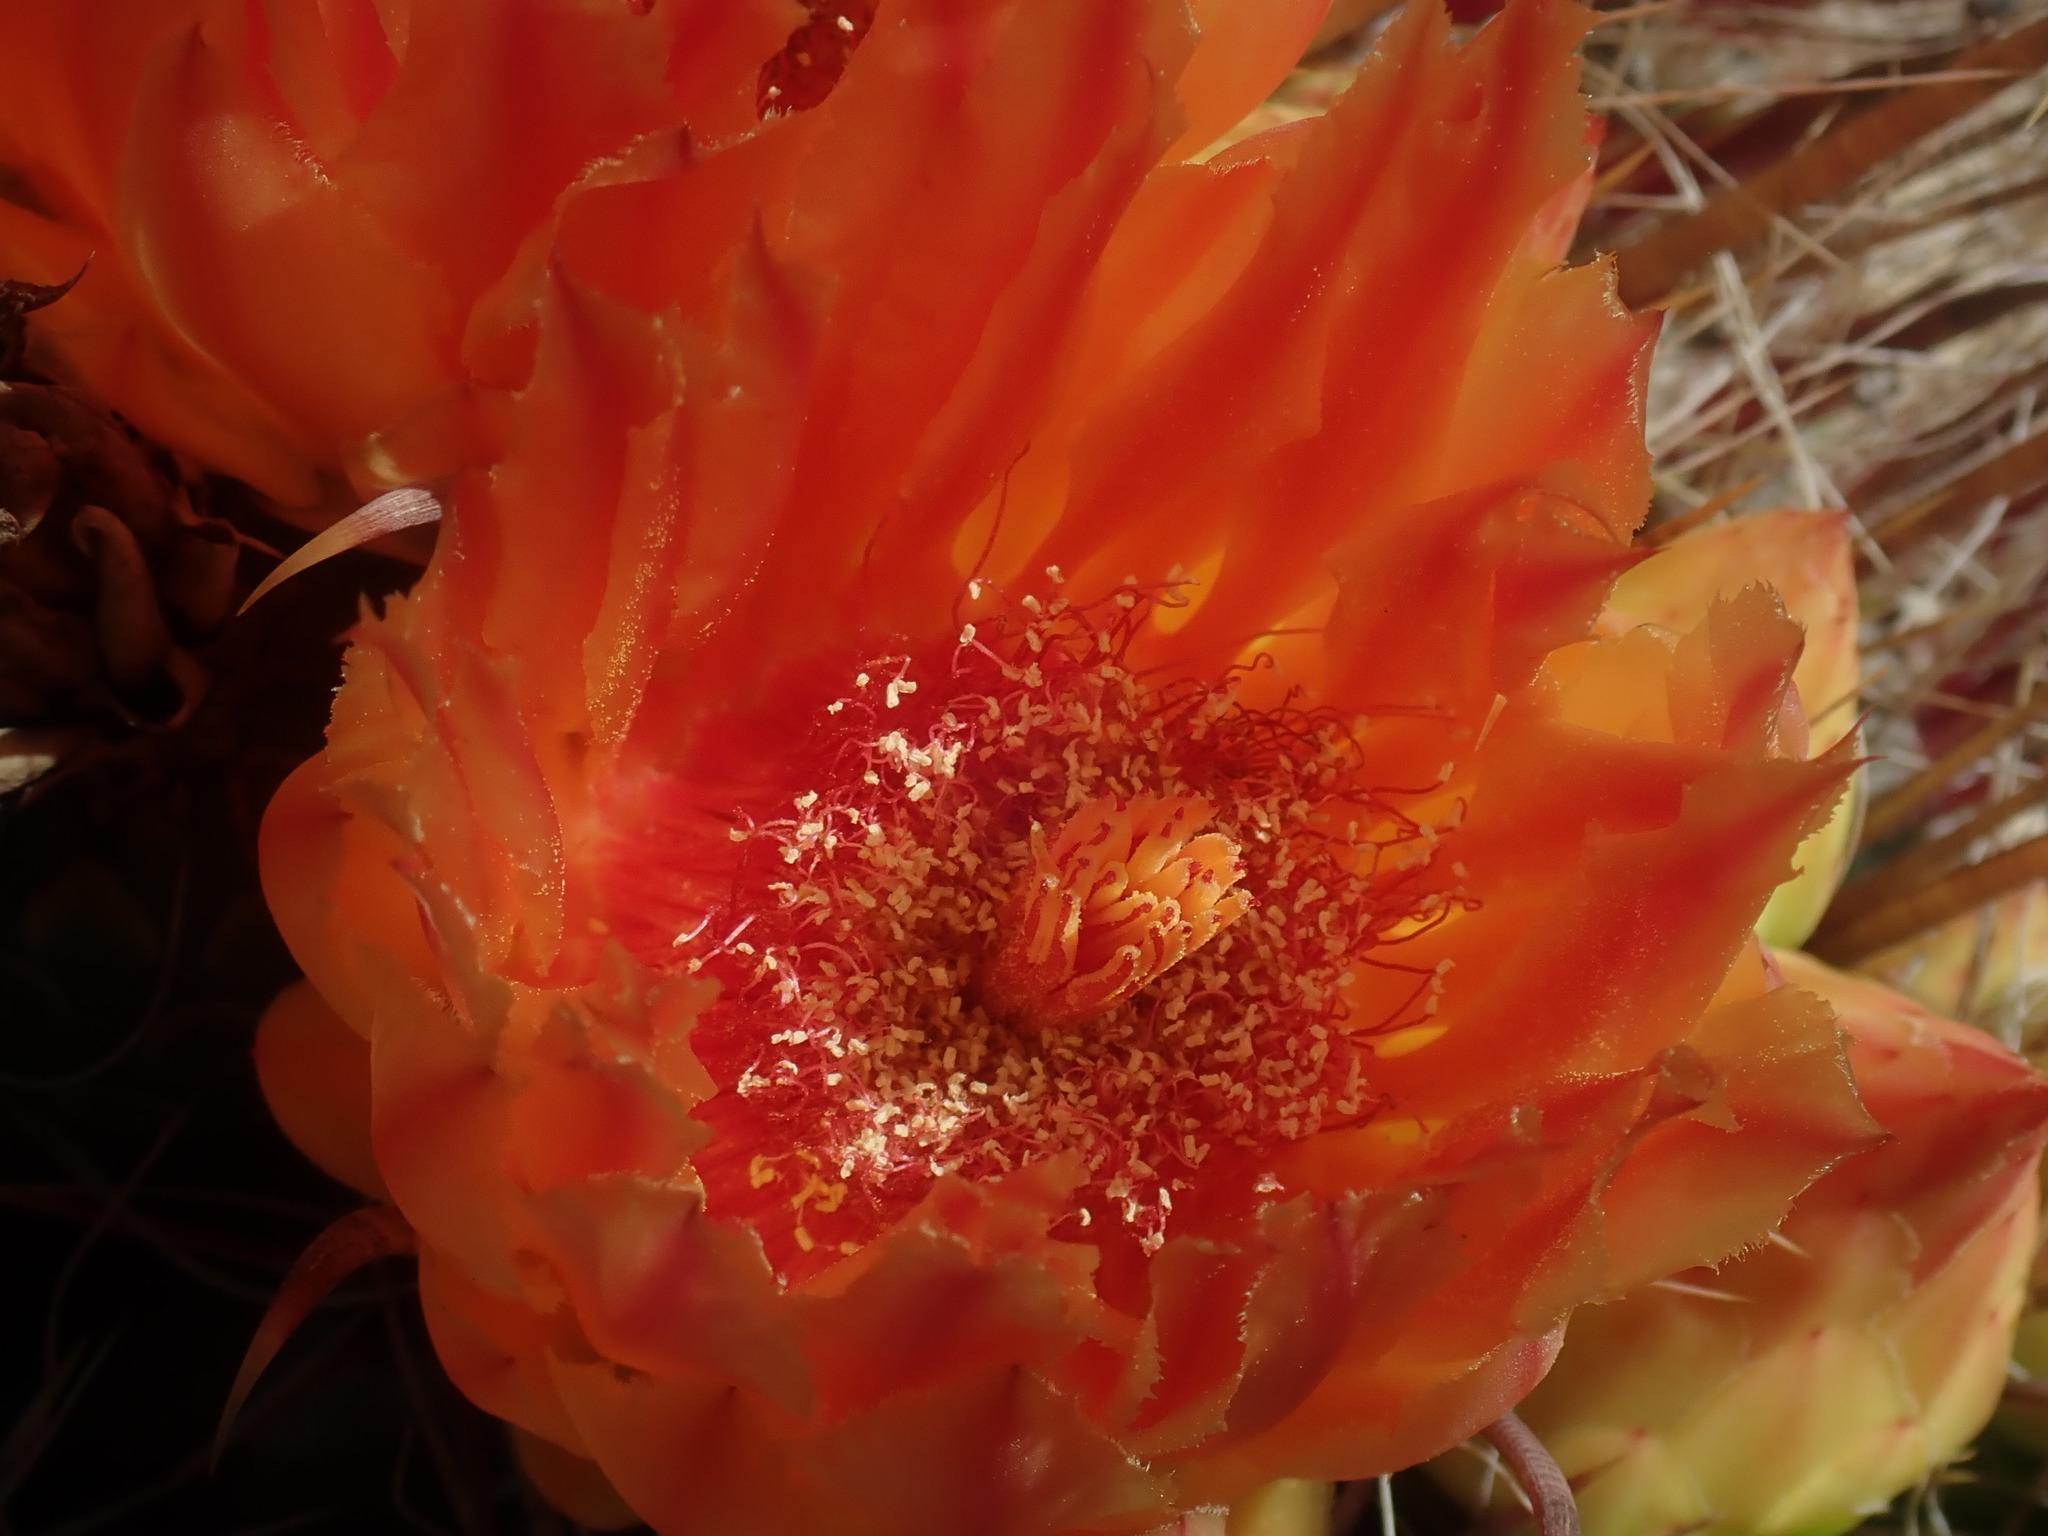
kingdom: Plantae
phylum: Tracheophyta
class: Magnoliopsida
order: Caryophyllales
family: Cactaceae
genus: Ferocactus
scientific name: Ferocactus wislizeni
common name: Candy barrel cactus
